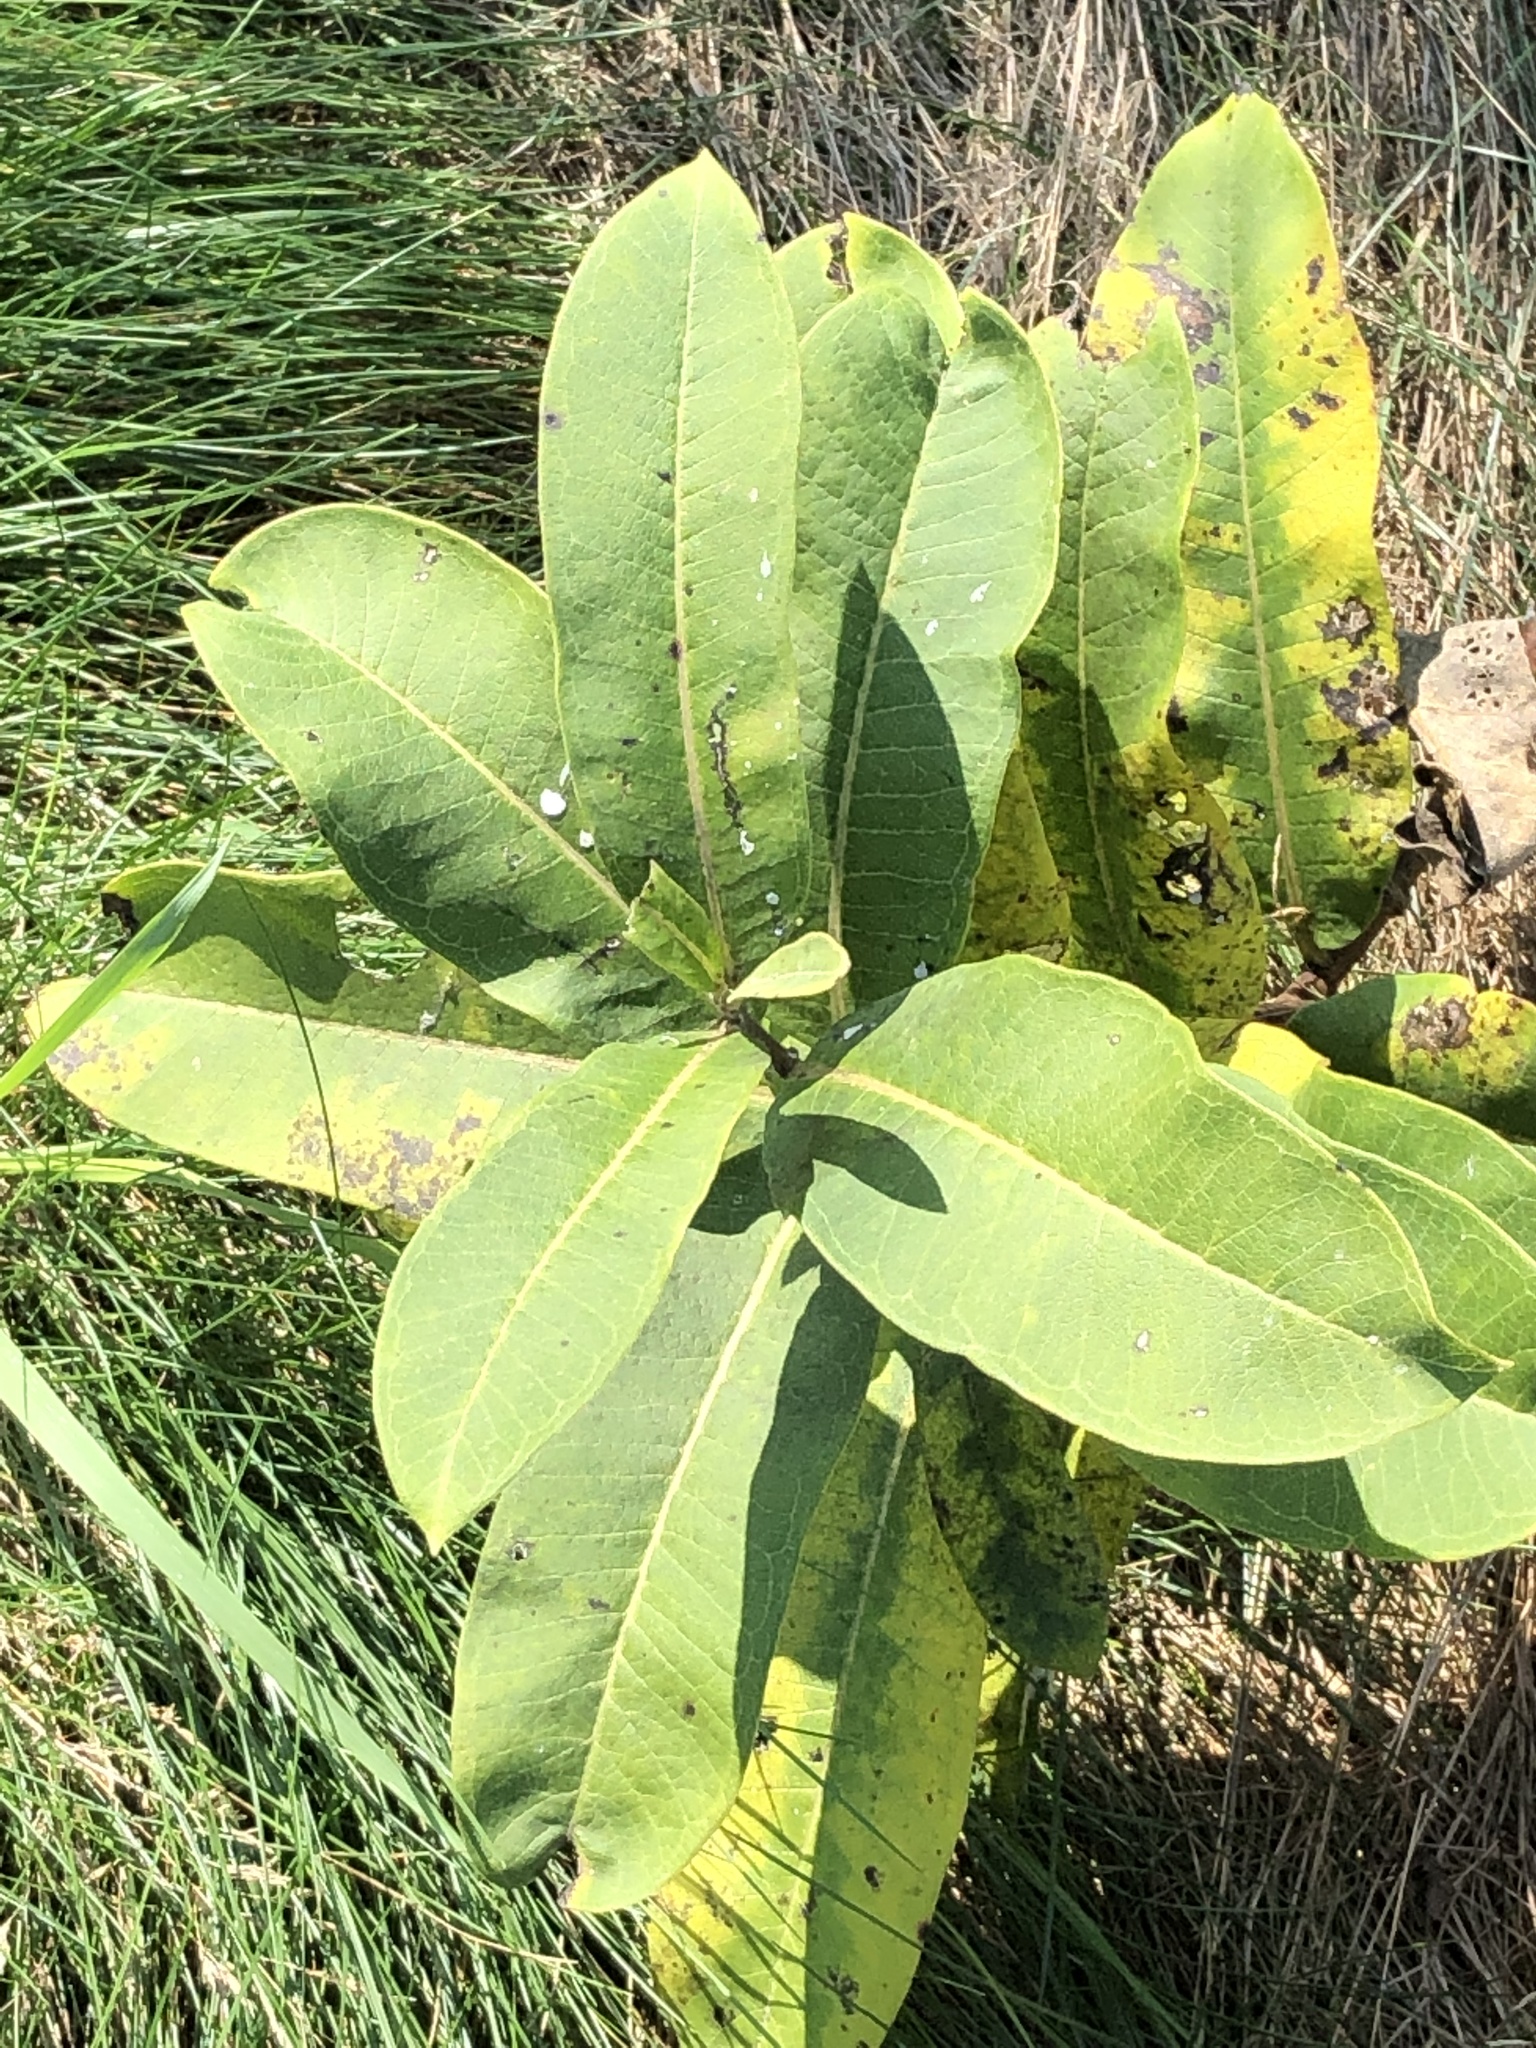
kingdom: Plantae
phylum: Tracheophyta
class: Magnoliopsida
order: Gentianales
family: Apocynaceae
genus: Asclepias
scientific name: Asclepias syriaca
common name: Common milkweed
